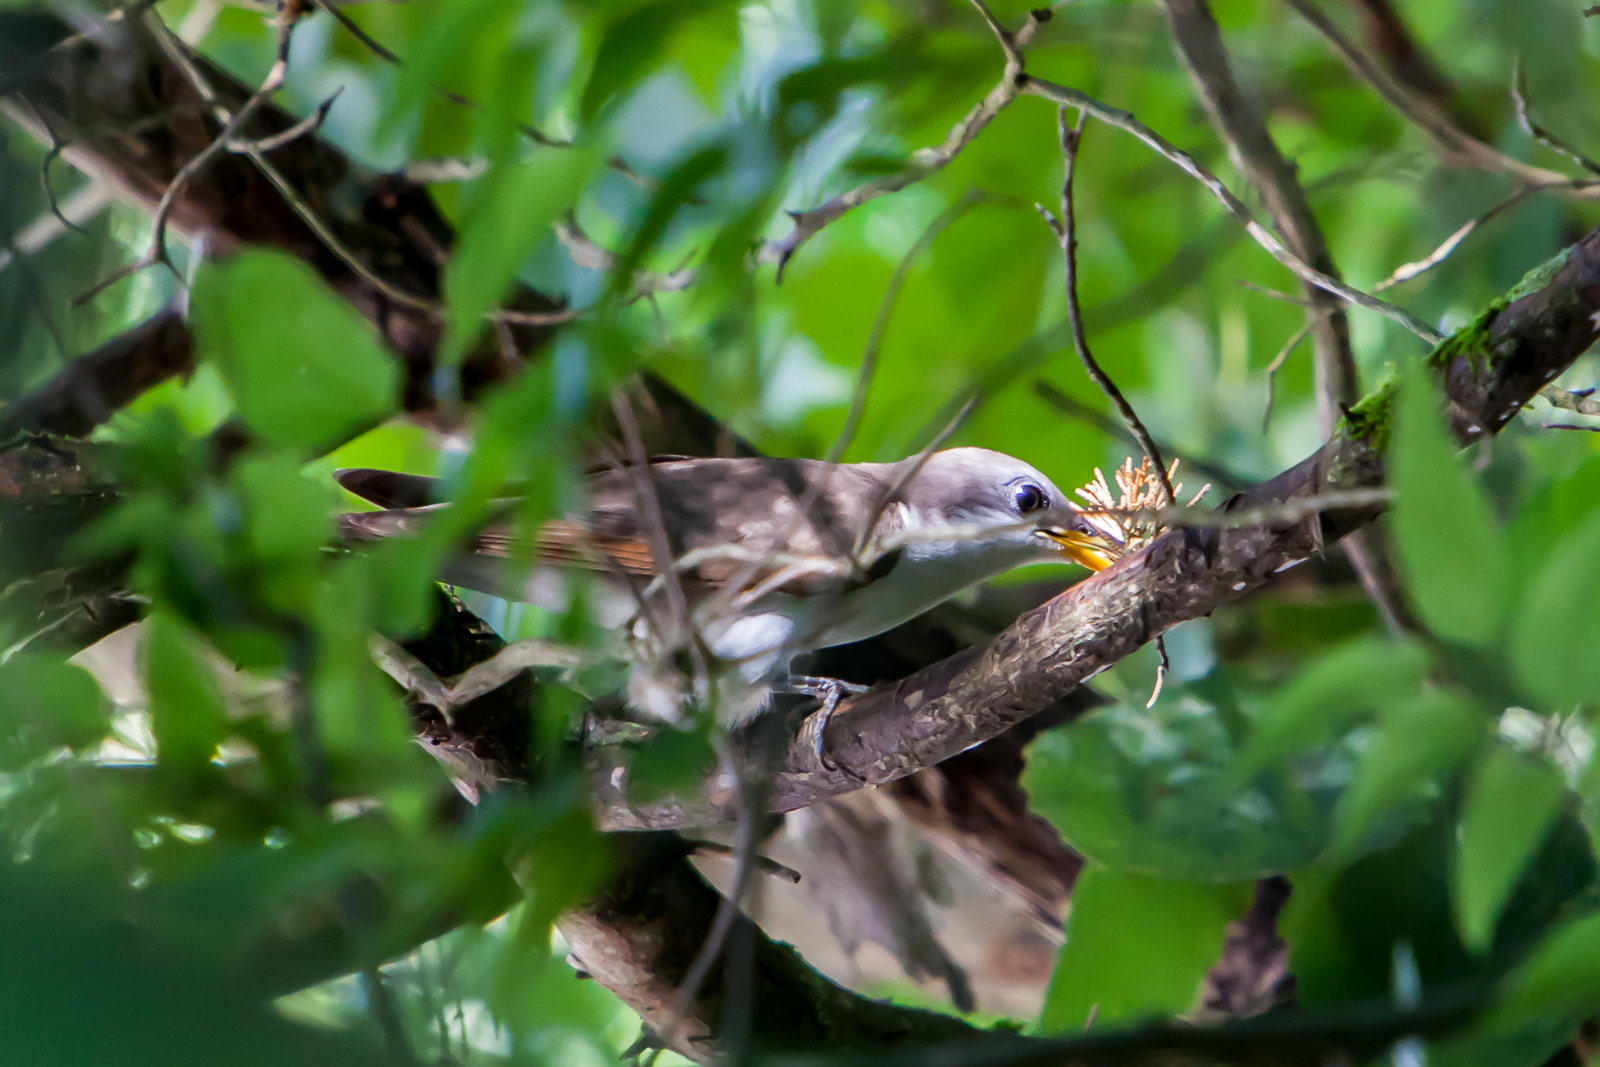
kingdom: Animalia
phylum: Chordata
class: Aves
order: Cuculiformes
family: Cuculidae
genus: Coccyzus
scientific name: Coccyzus americanus
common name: Yellow-billed cuckoo
